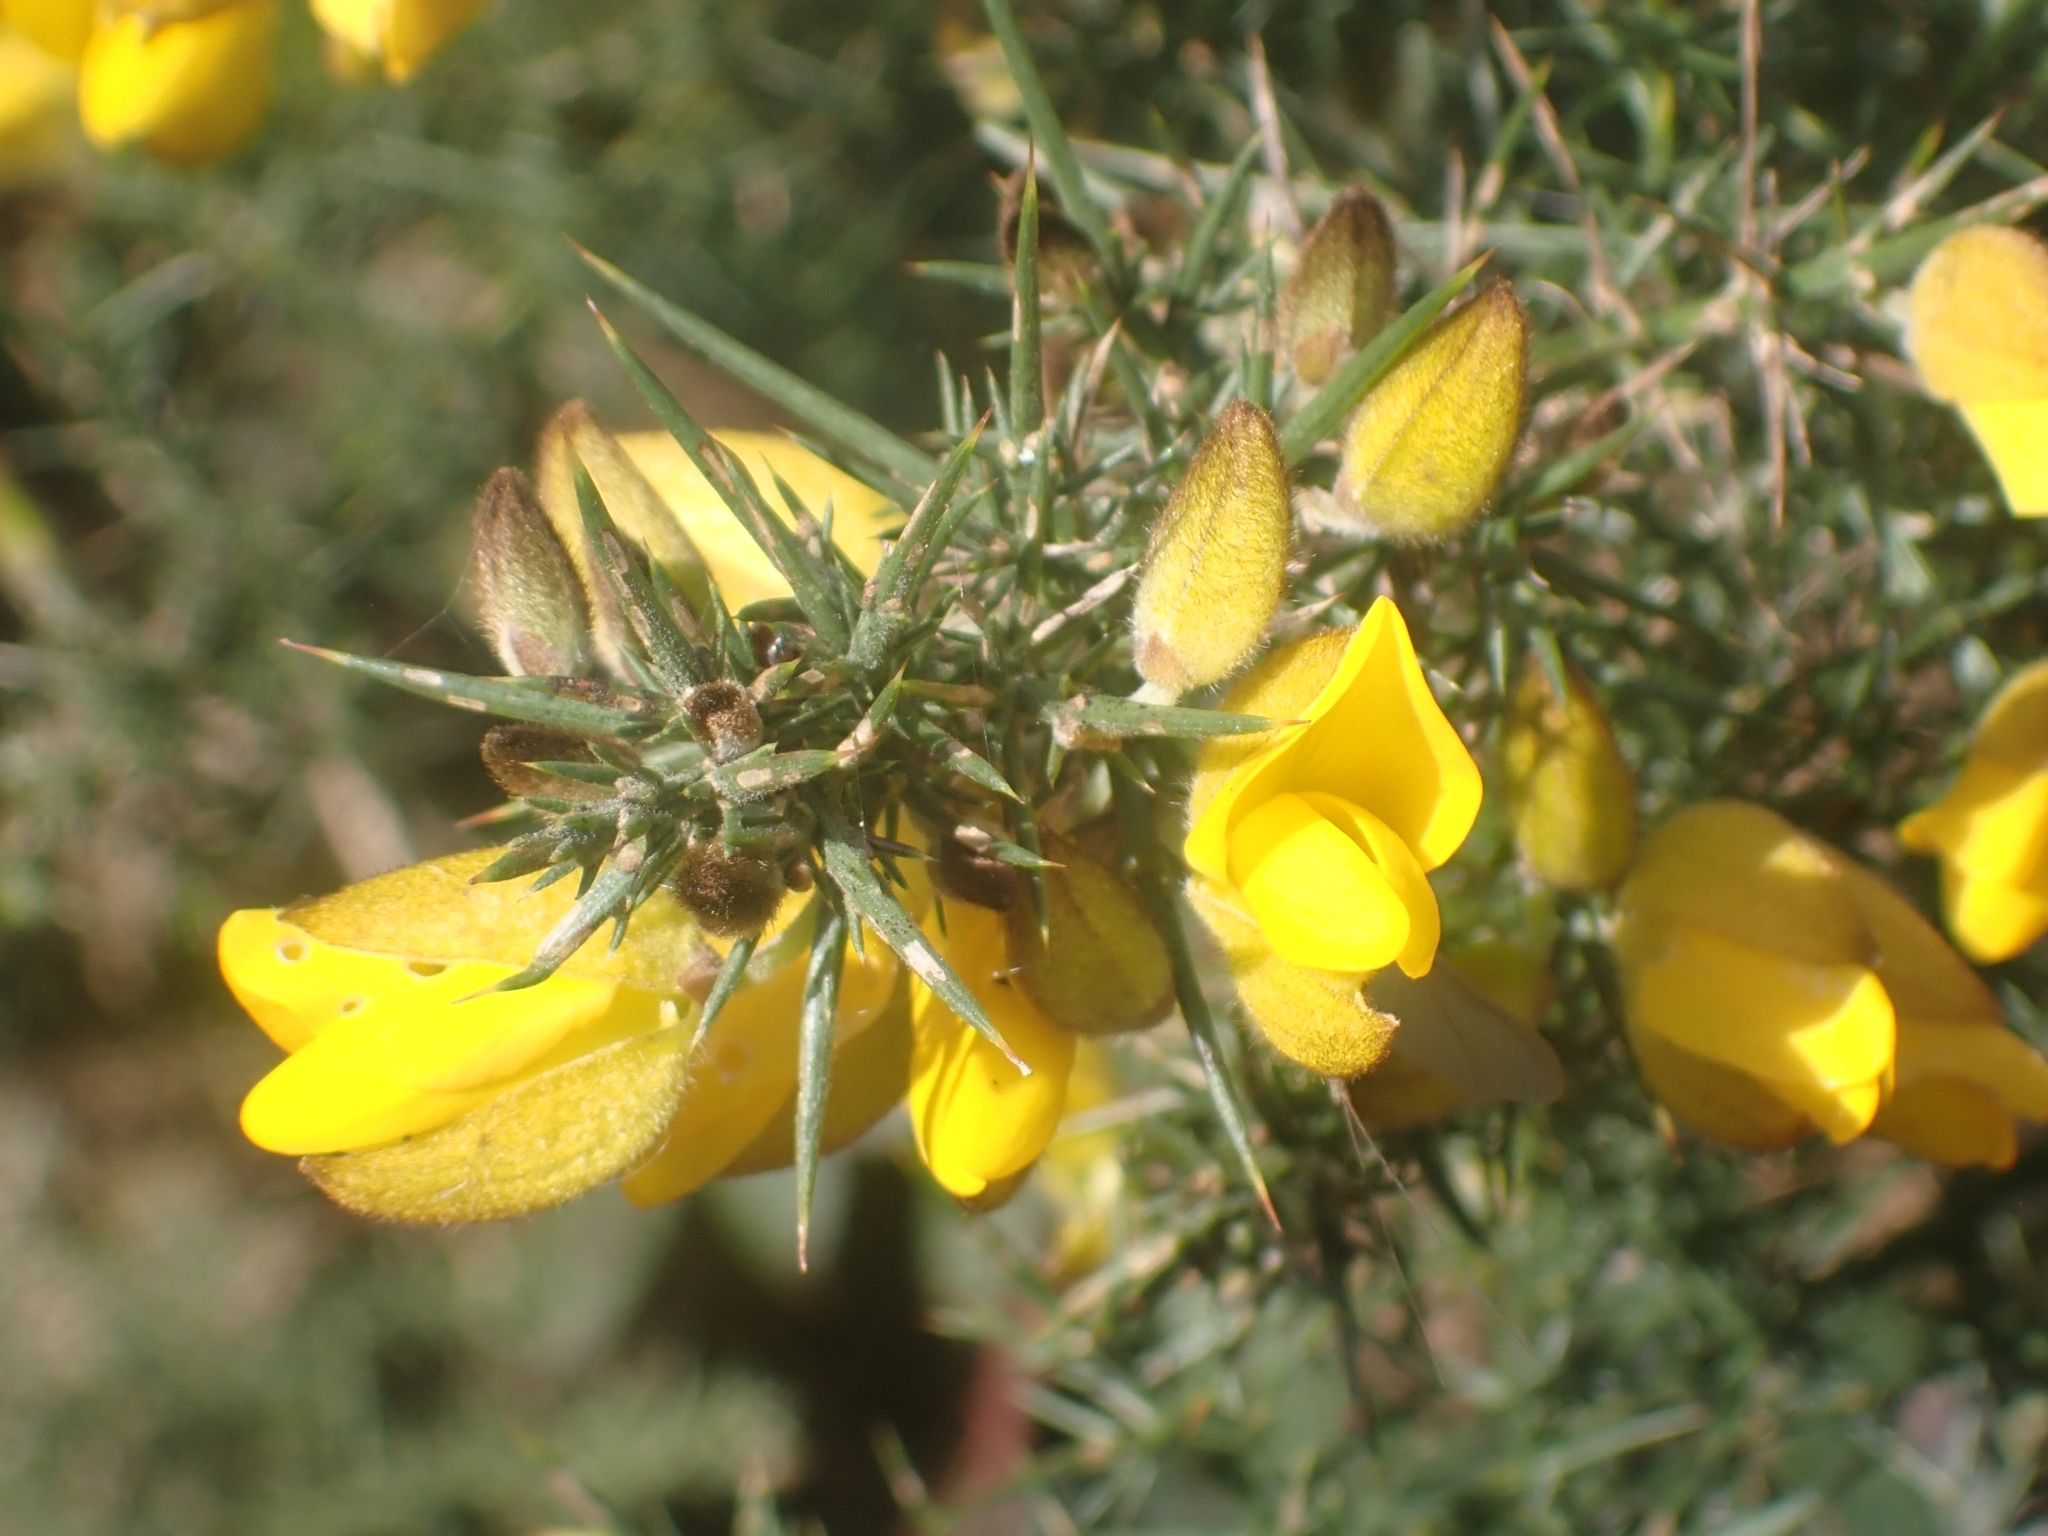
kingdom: Plantae
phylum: Tracheophyta
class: Magnoliopsida
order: Fabales
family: Fabaceae
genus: Ulex
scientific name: Ulex europaeus
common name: Common gorse
